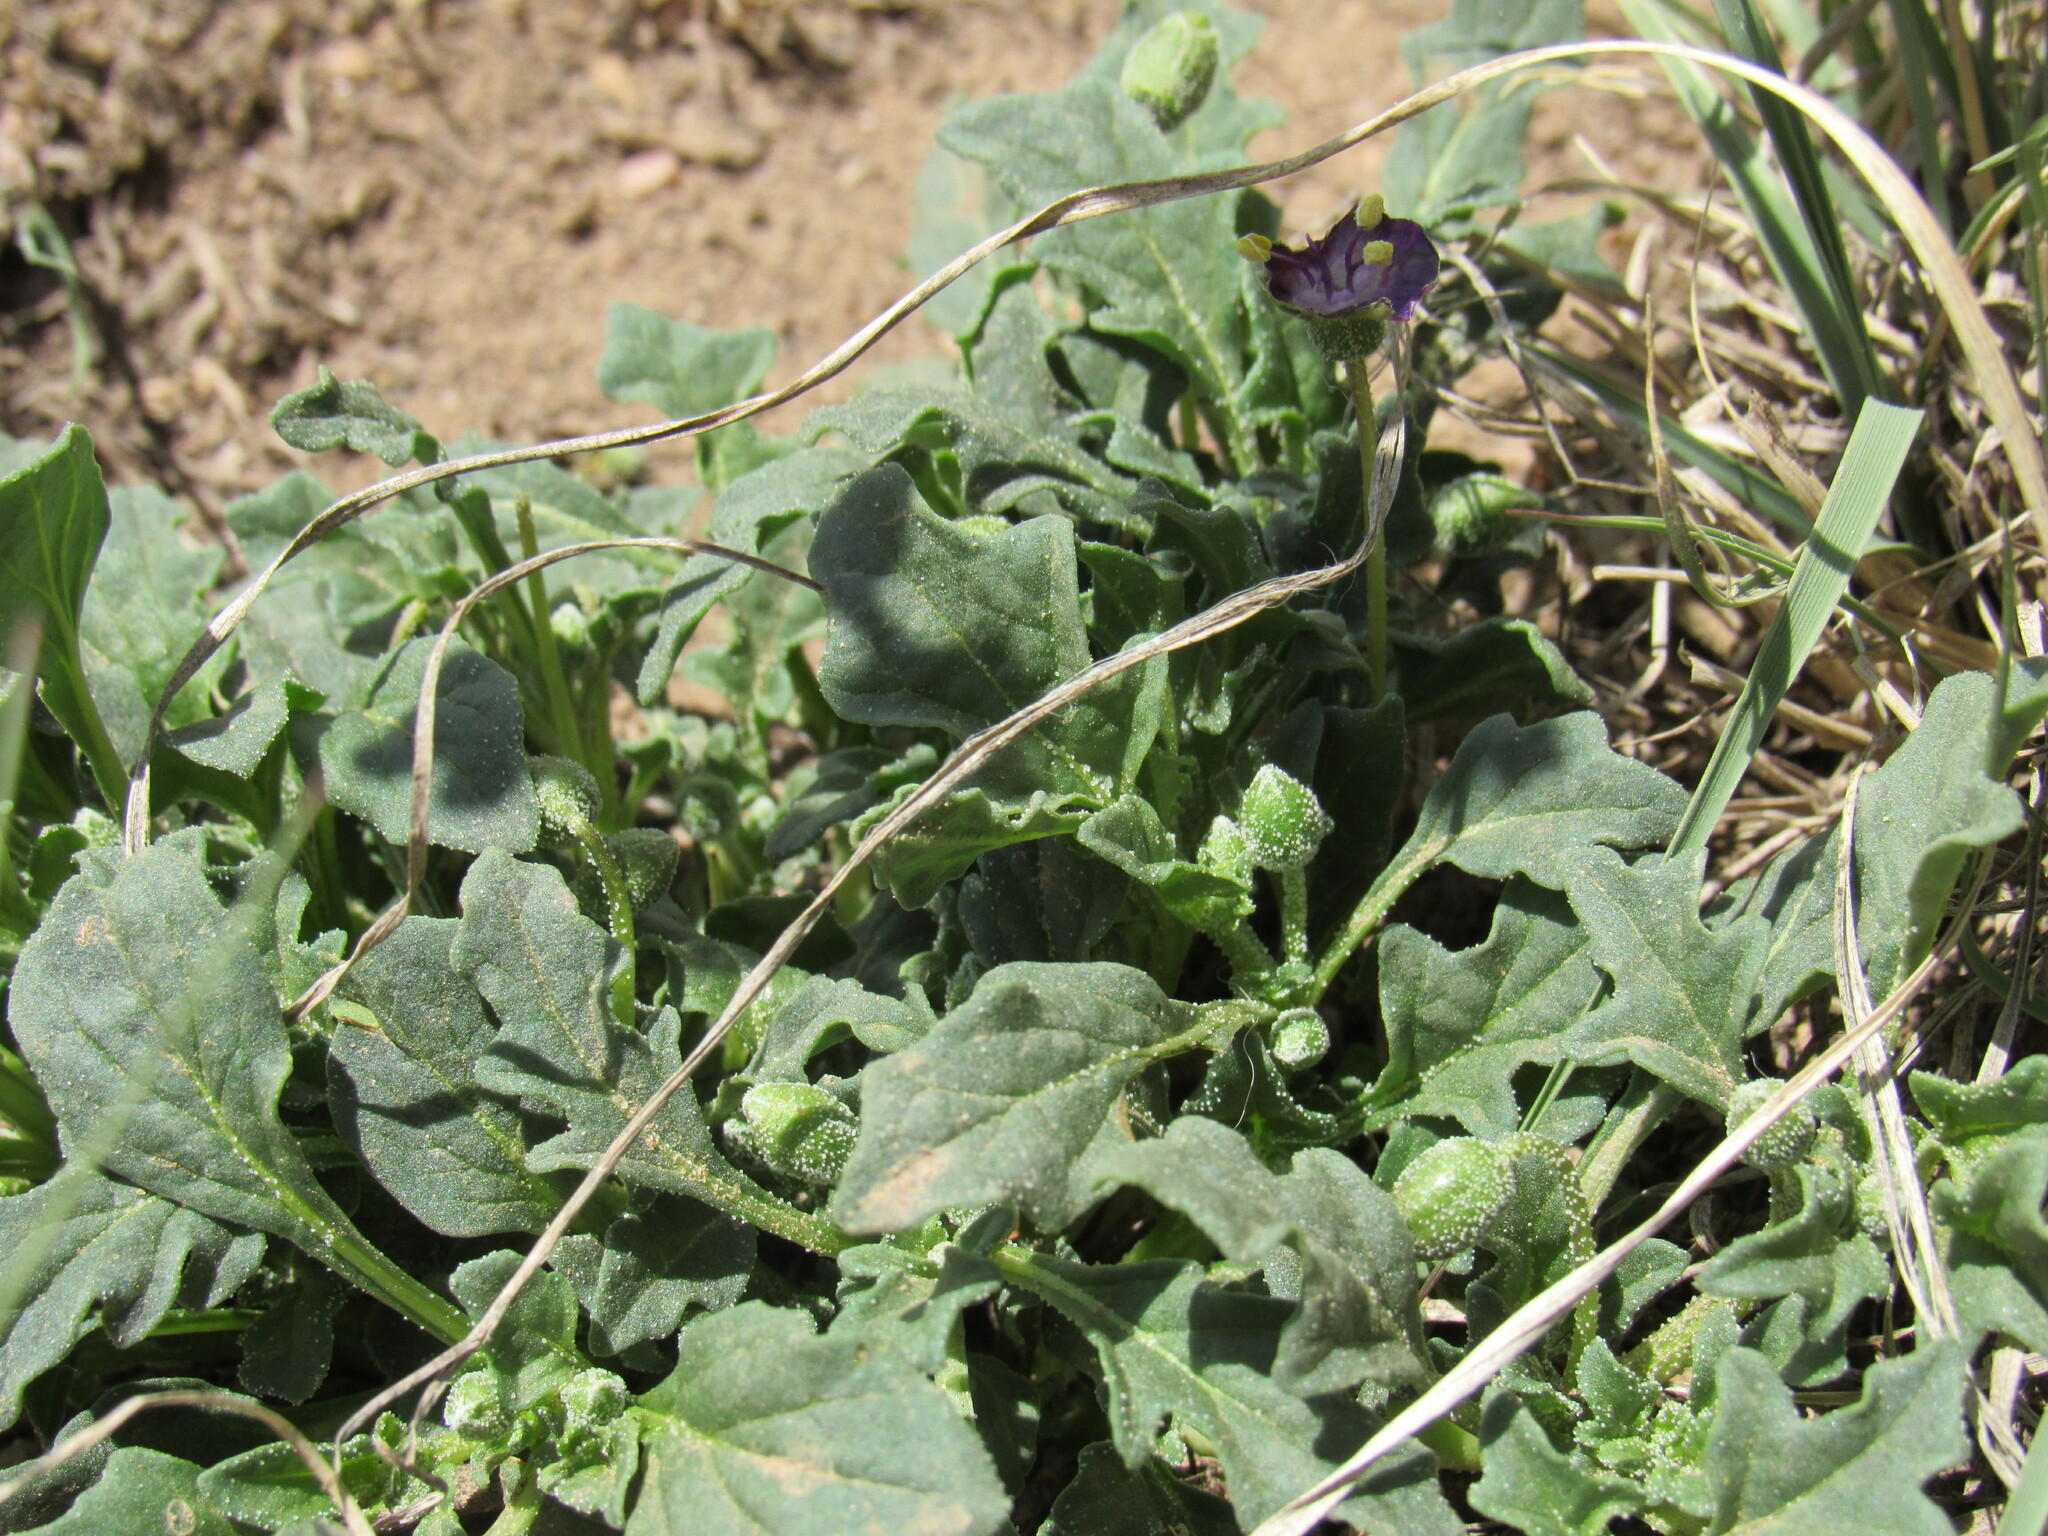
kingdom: Plantae
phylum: Tracheophyta
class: Magnoliopsida
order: Solanales
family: Solanaceae
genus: Quincula
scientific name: Quincula lobata
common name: Purple-ground-cherry
